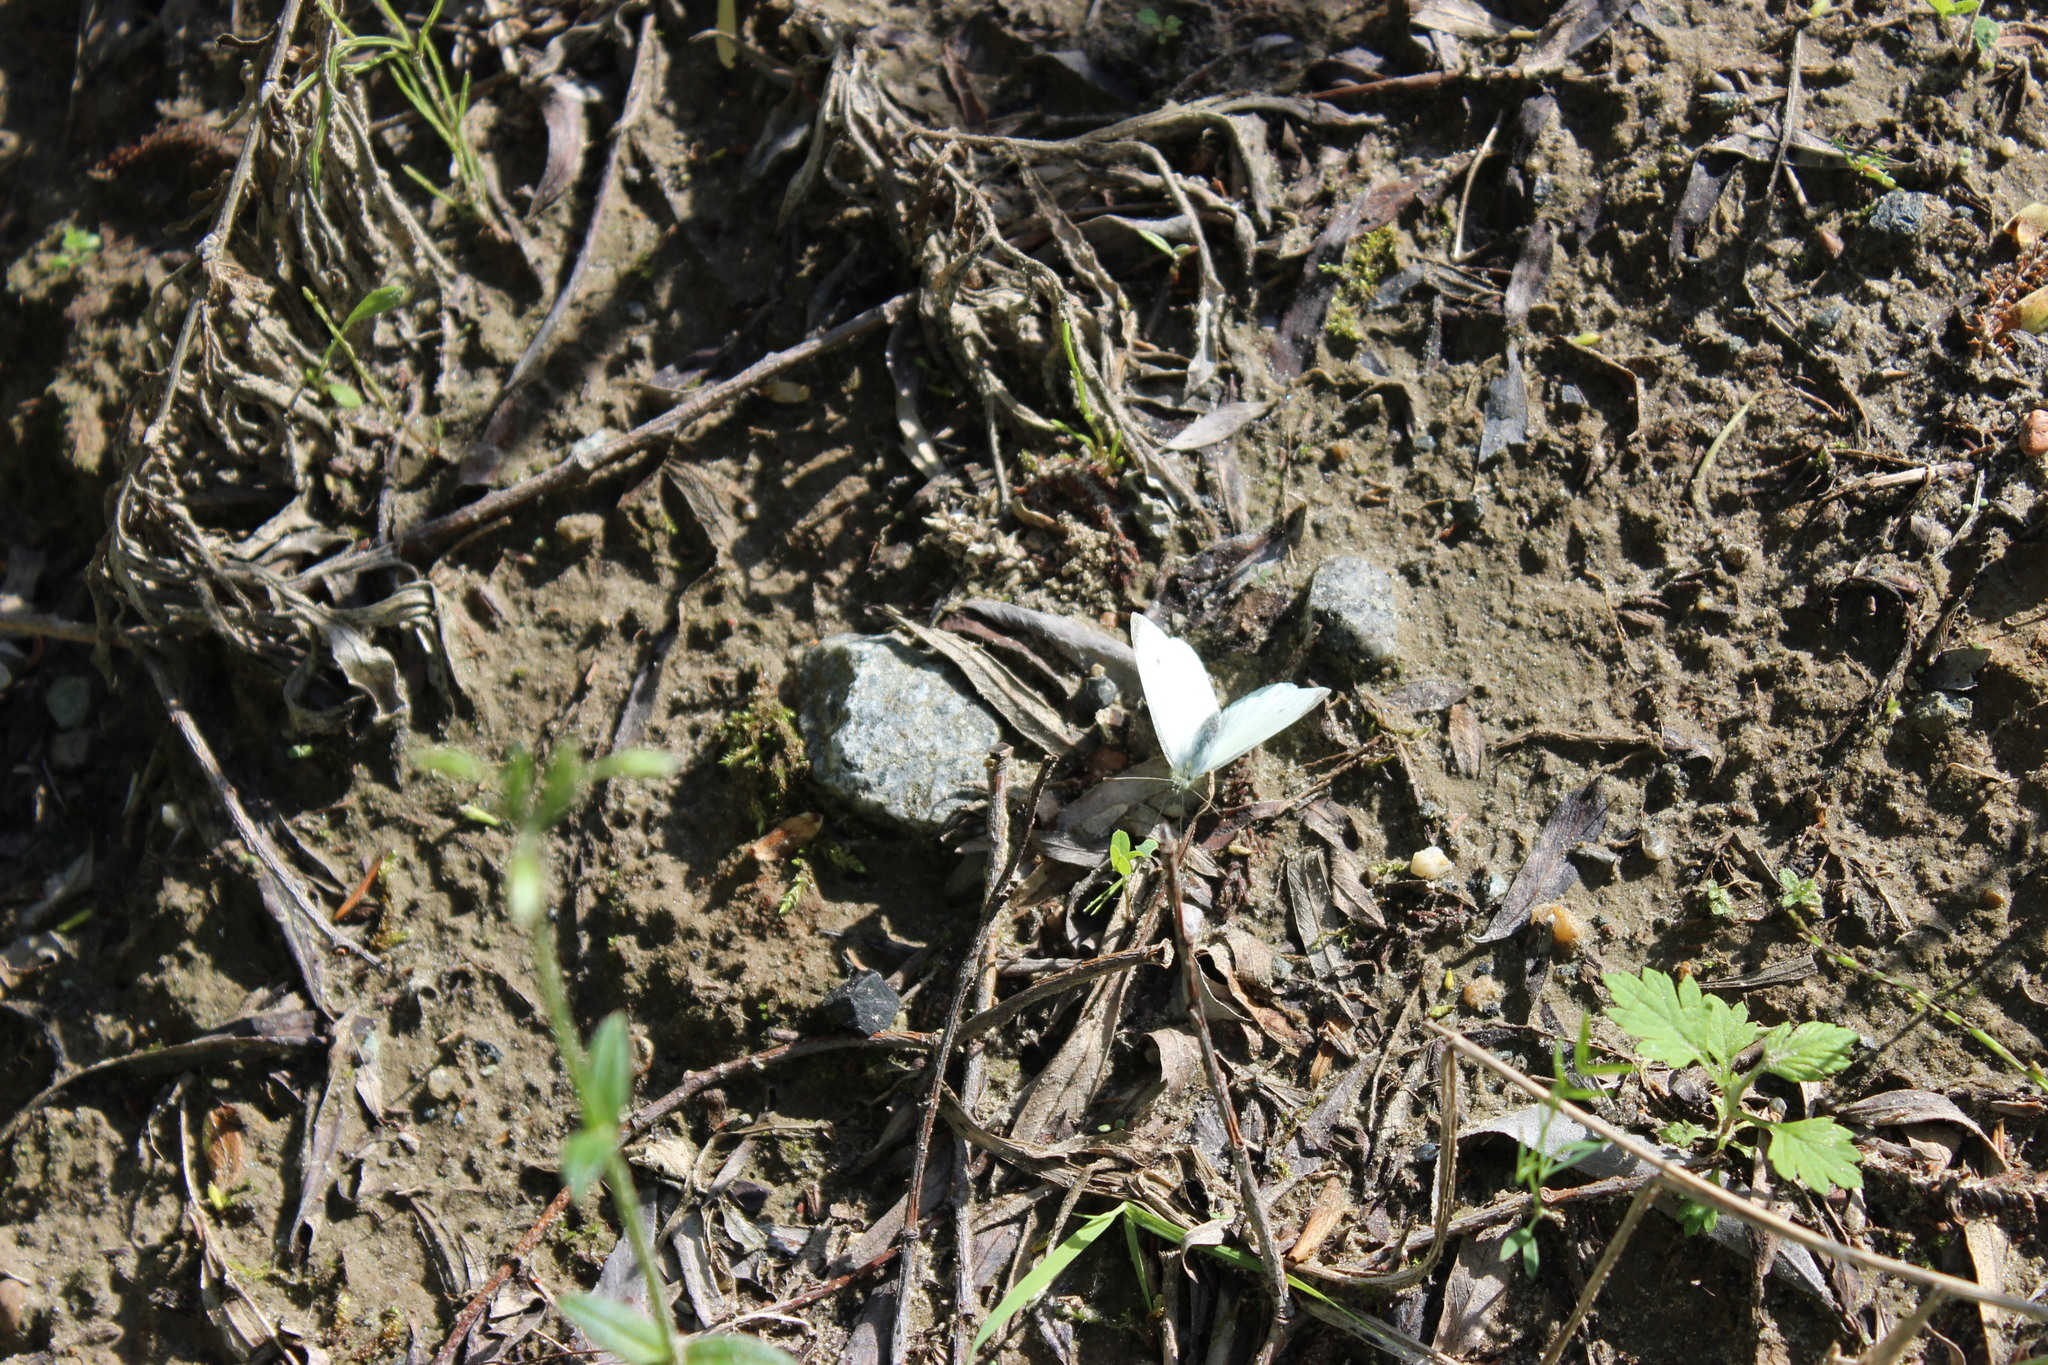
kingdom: Animalia
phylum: Arthropoda
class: Insecta
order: Lepidoptera
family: Pieridae
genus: Pieris
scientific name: Pieris rapae
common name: Small white
